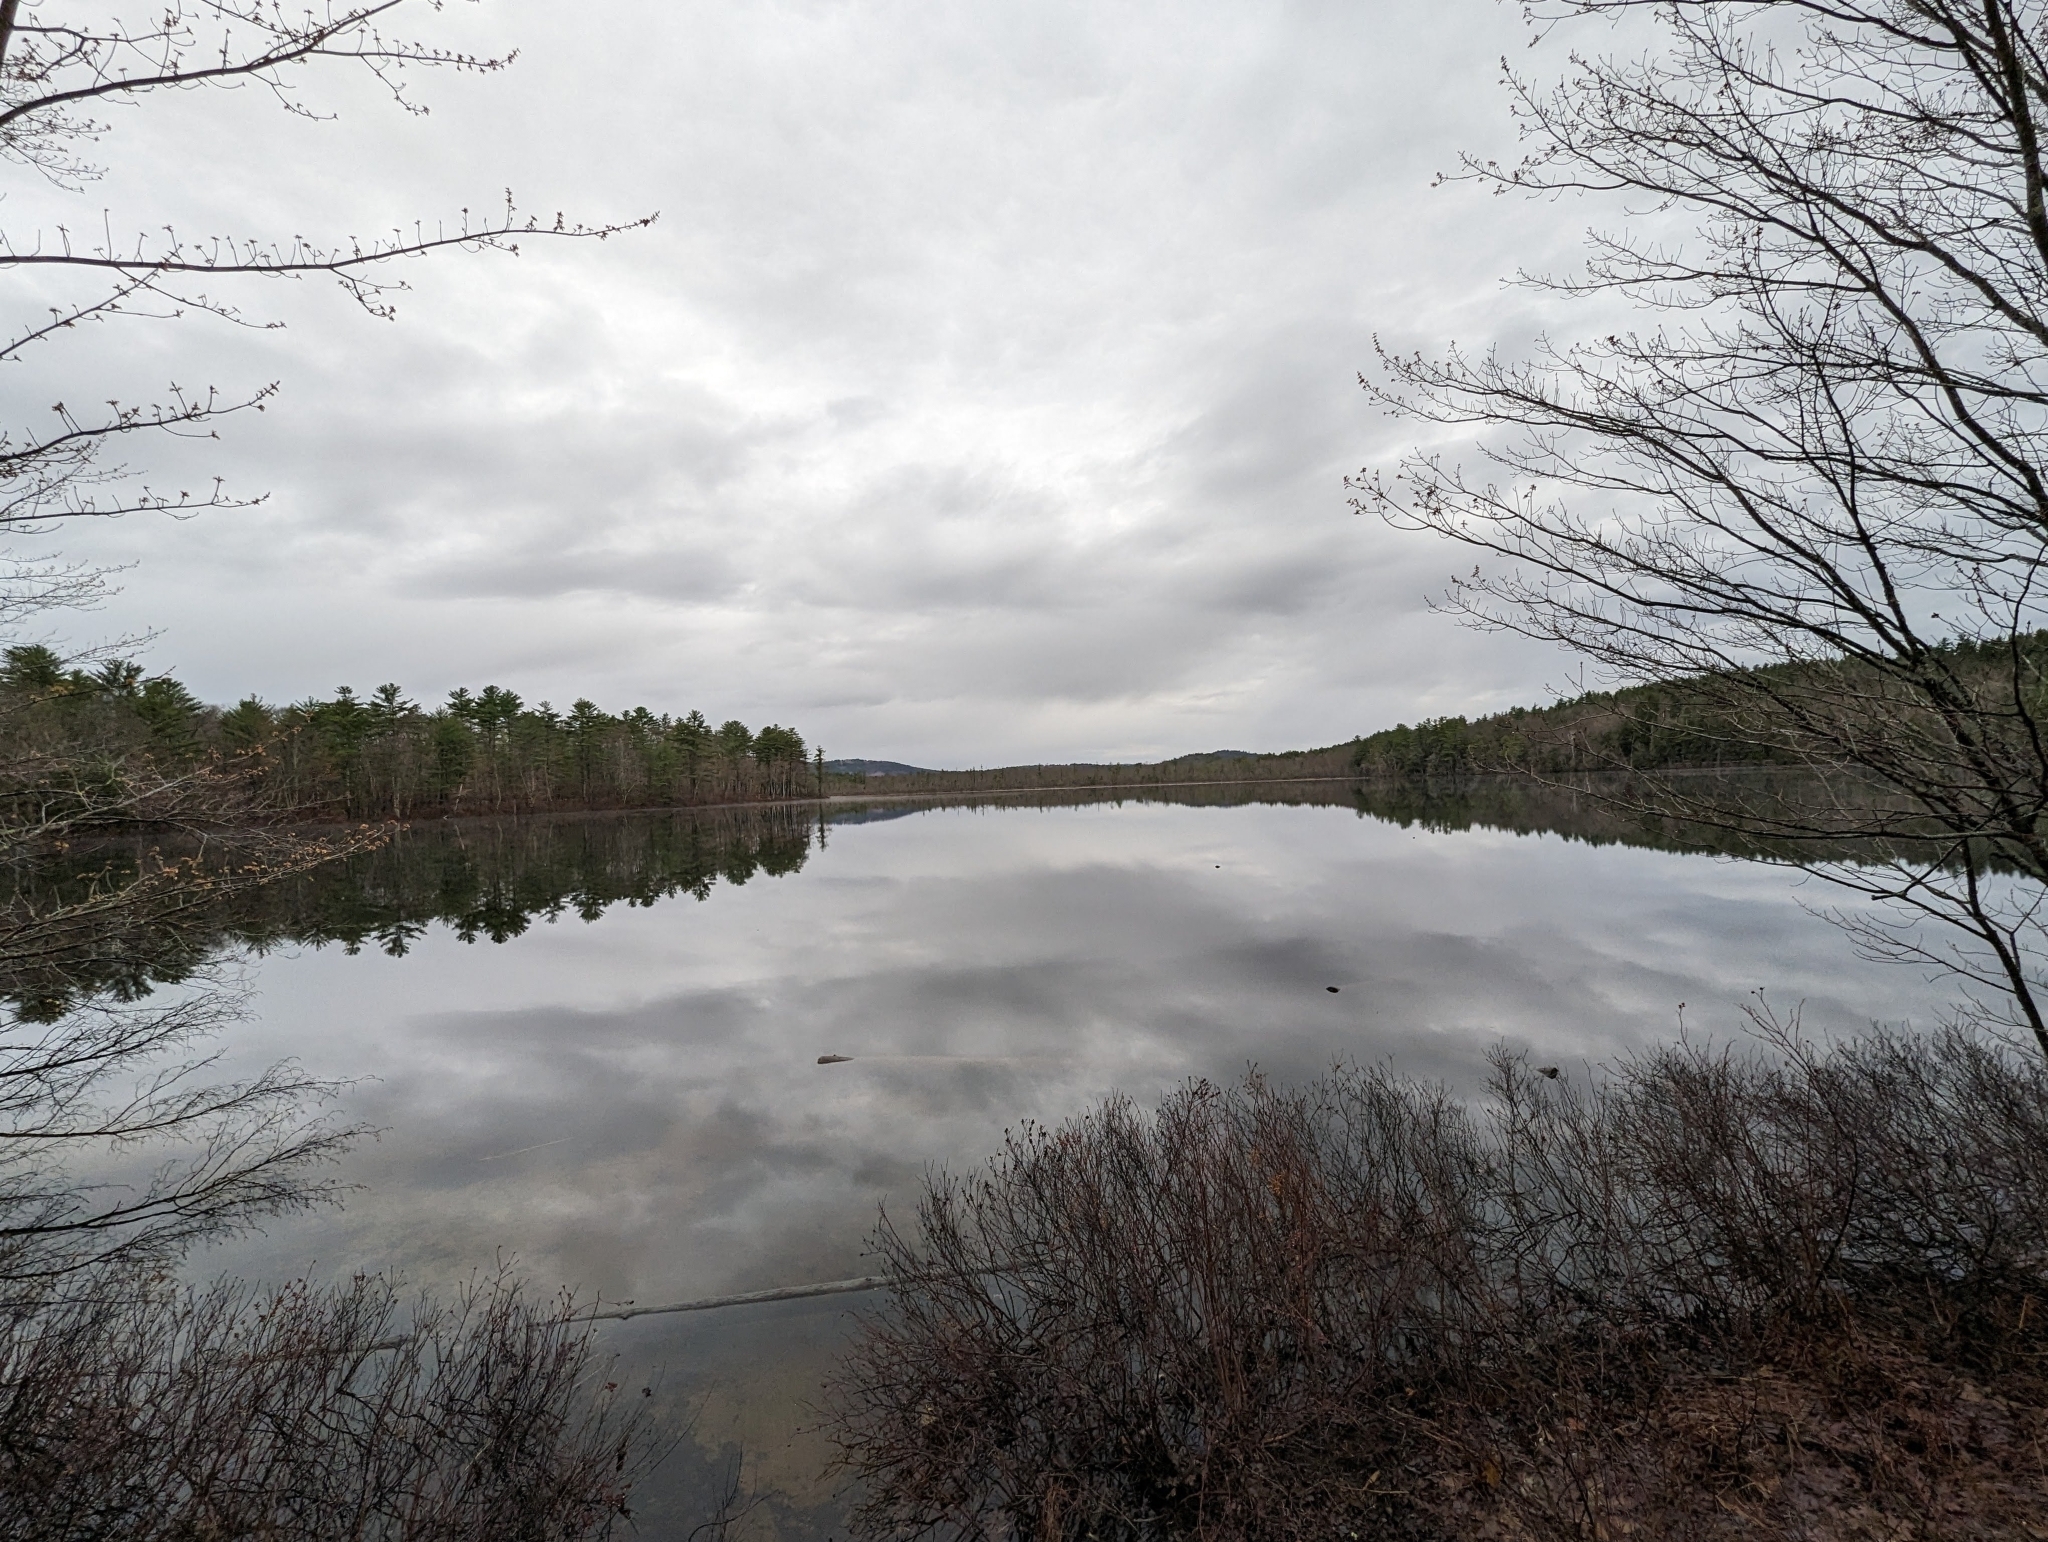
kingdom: Plantae
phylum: Tracheophyta
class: Pinopsida
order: Pinales
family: Pinaceae
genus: Pinus
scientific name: Pinus strobus
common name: Weymouth pine
